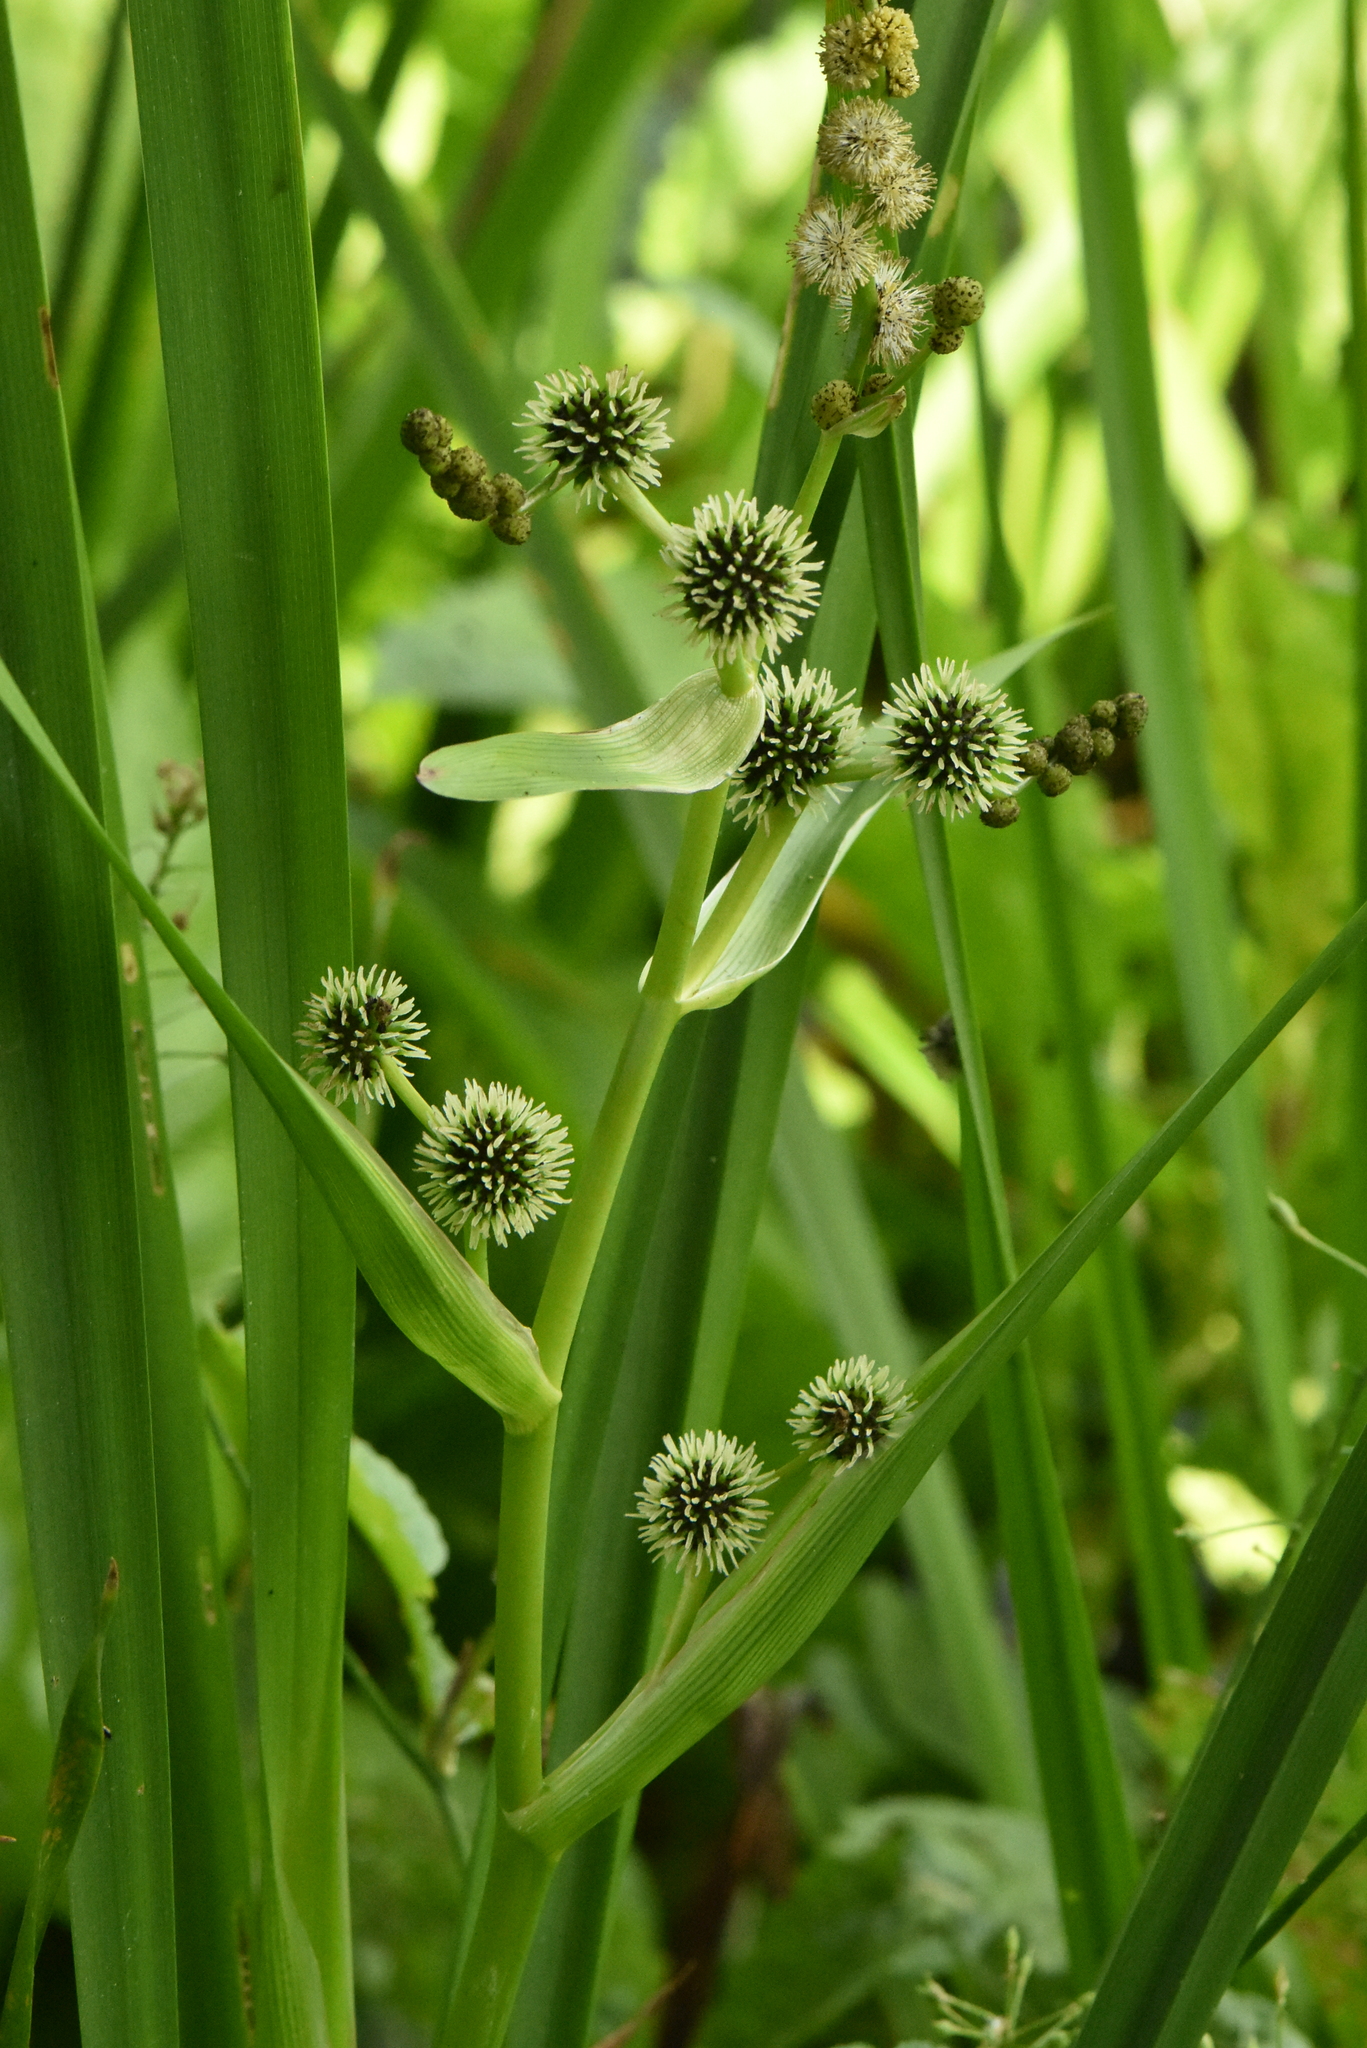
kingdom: Plantae
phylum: Tracheophyta
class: Liliopsida
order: Poales
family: Typhaceae
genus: Sparganium
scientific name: Sparganium erectum
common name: Branched bur-reed
